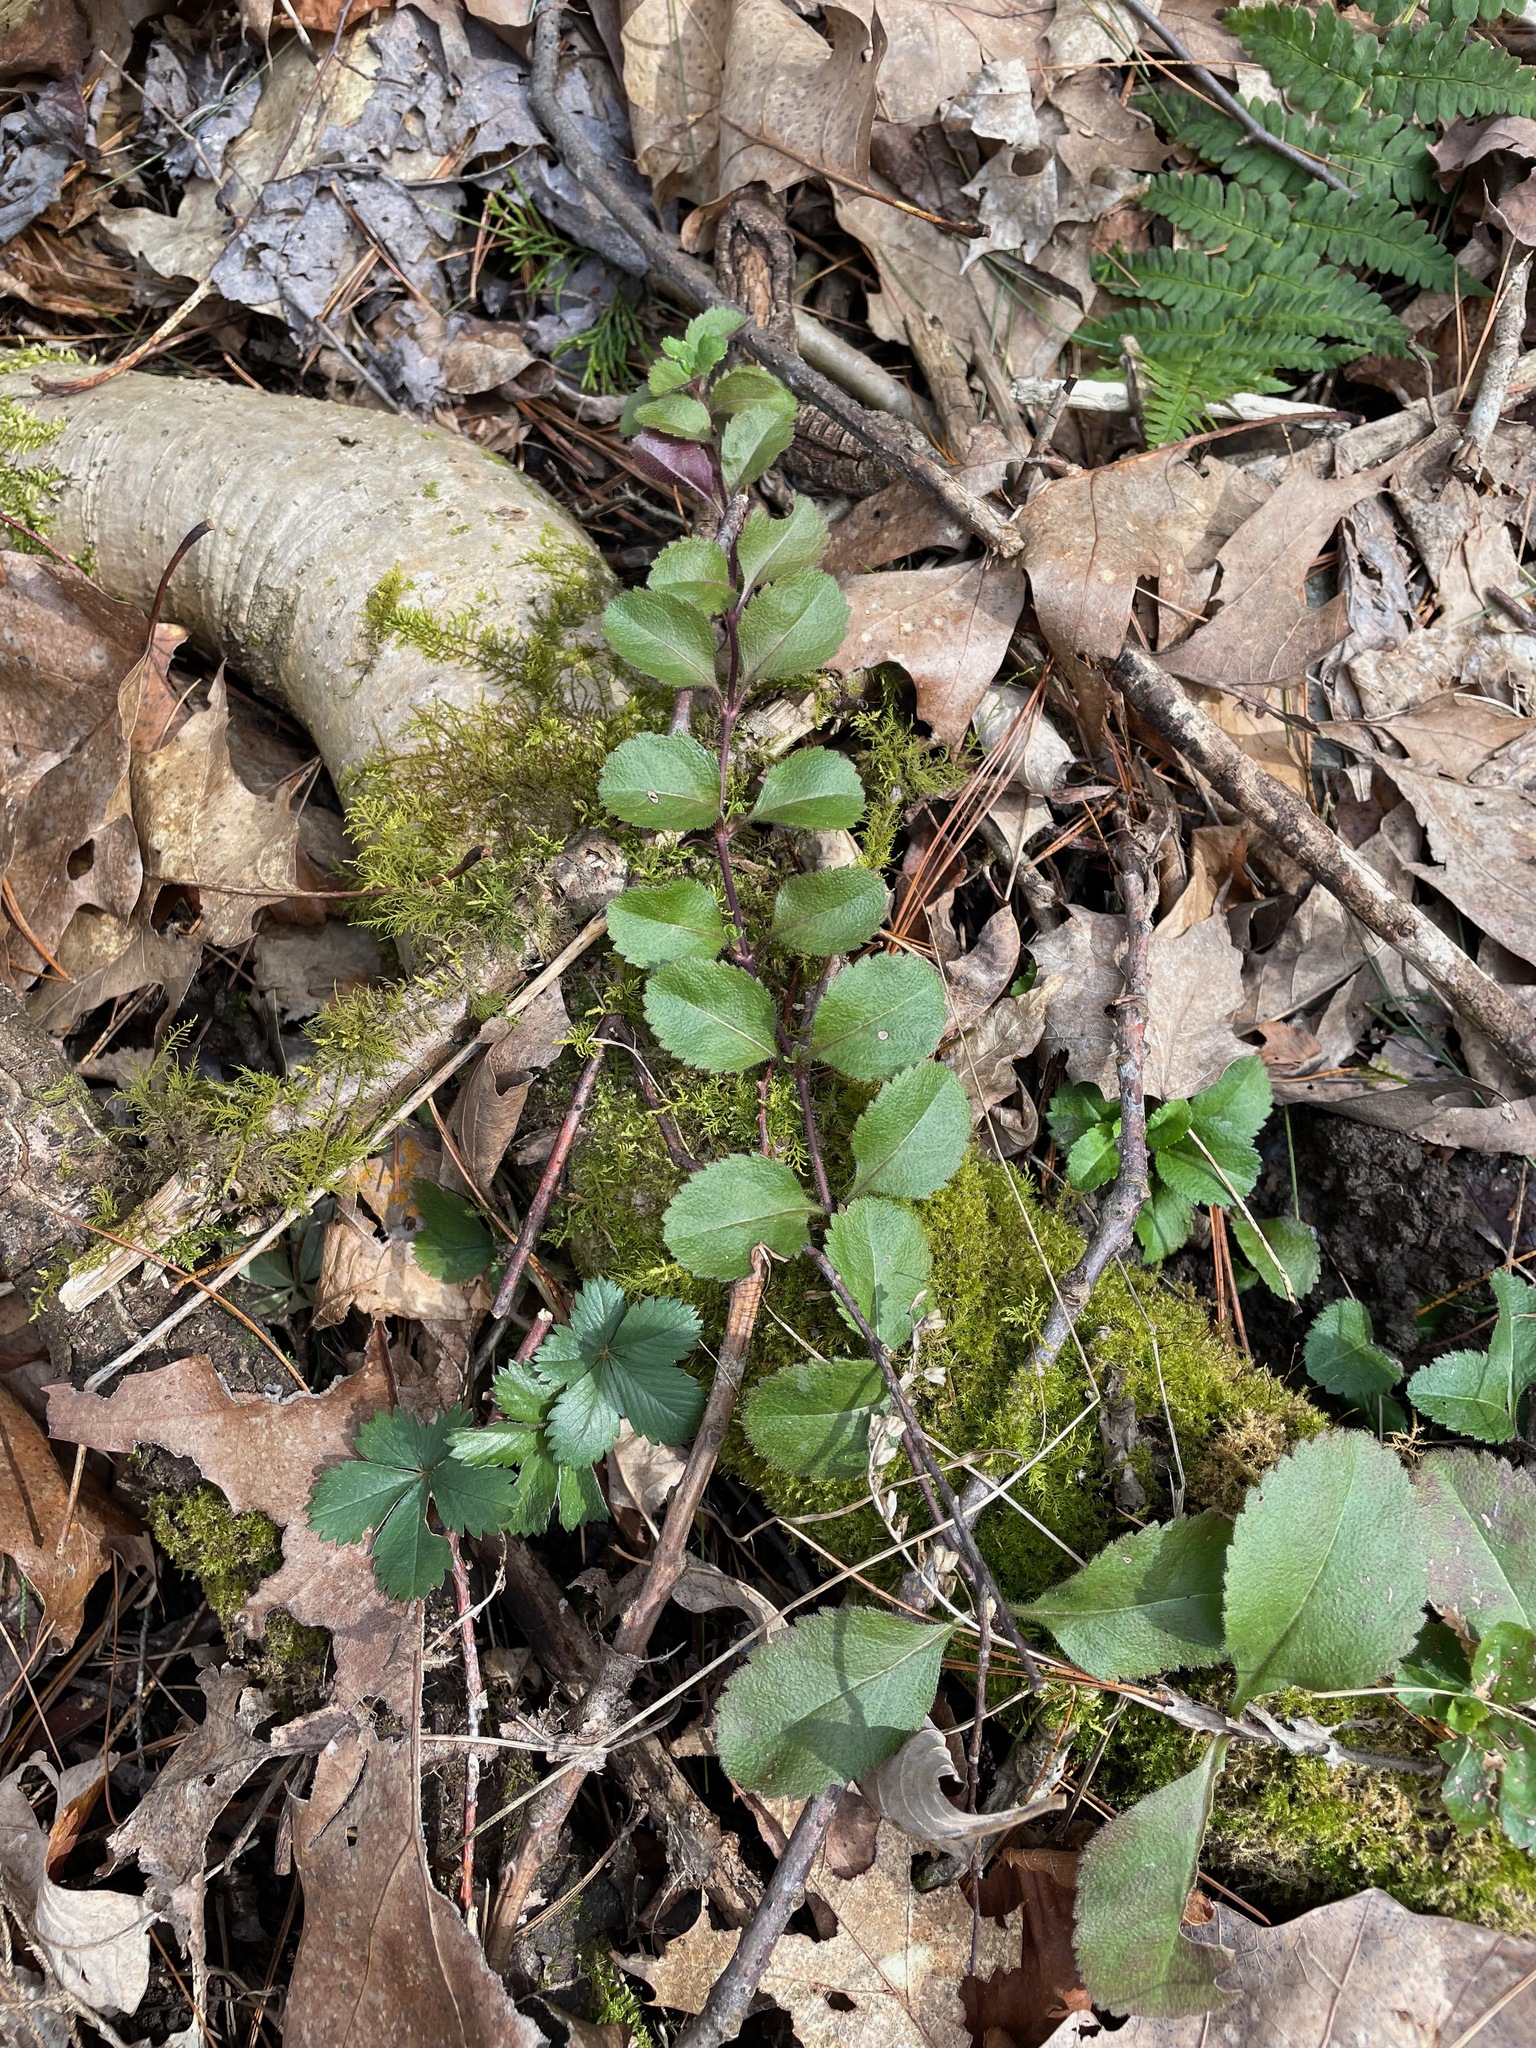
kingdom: Plantae
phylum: Tracheophyta
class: Magnoliopsida
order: Lamiales
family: Plantaginaceae
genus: Veronica
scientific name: Veronica officinalis
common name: Common speedwell
